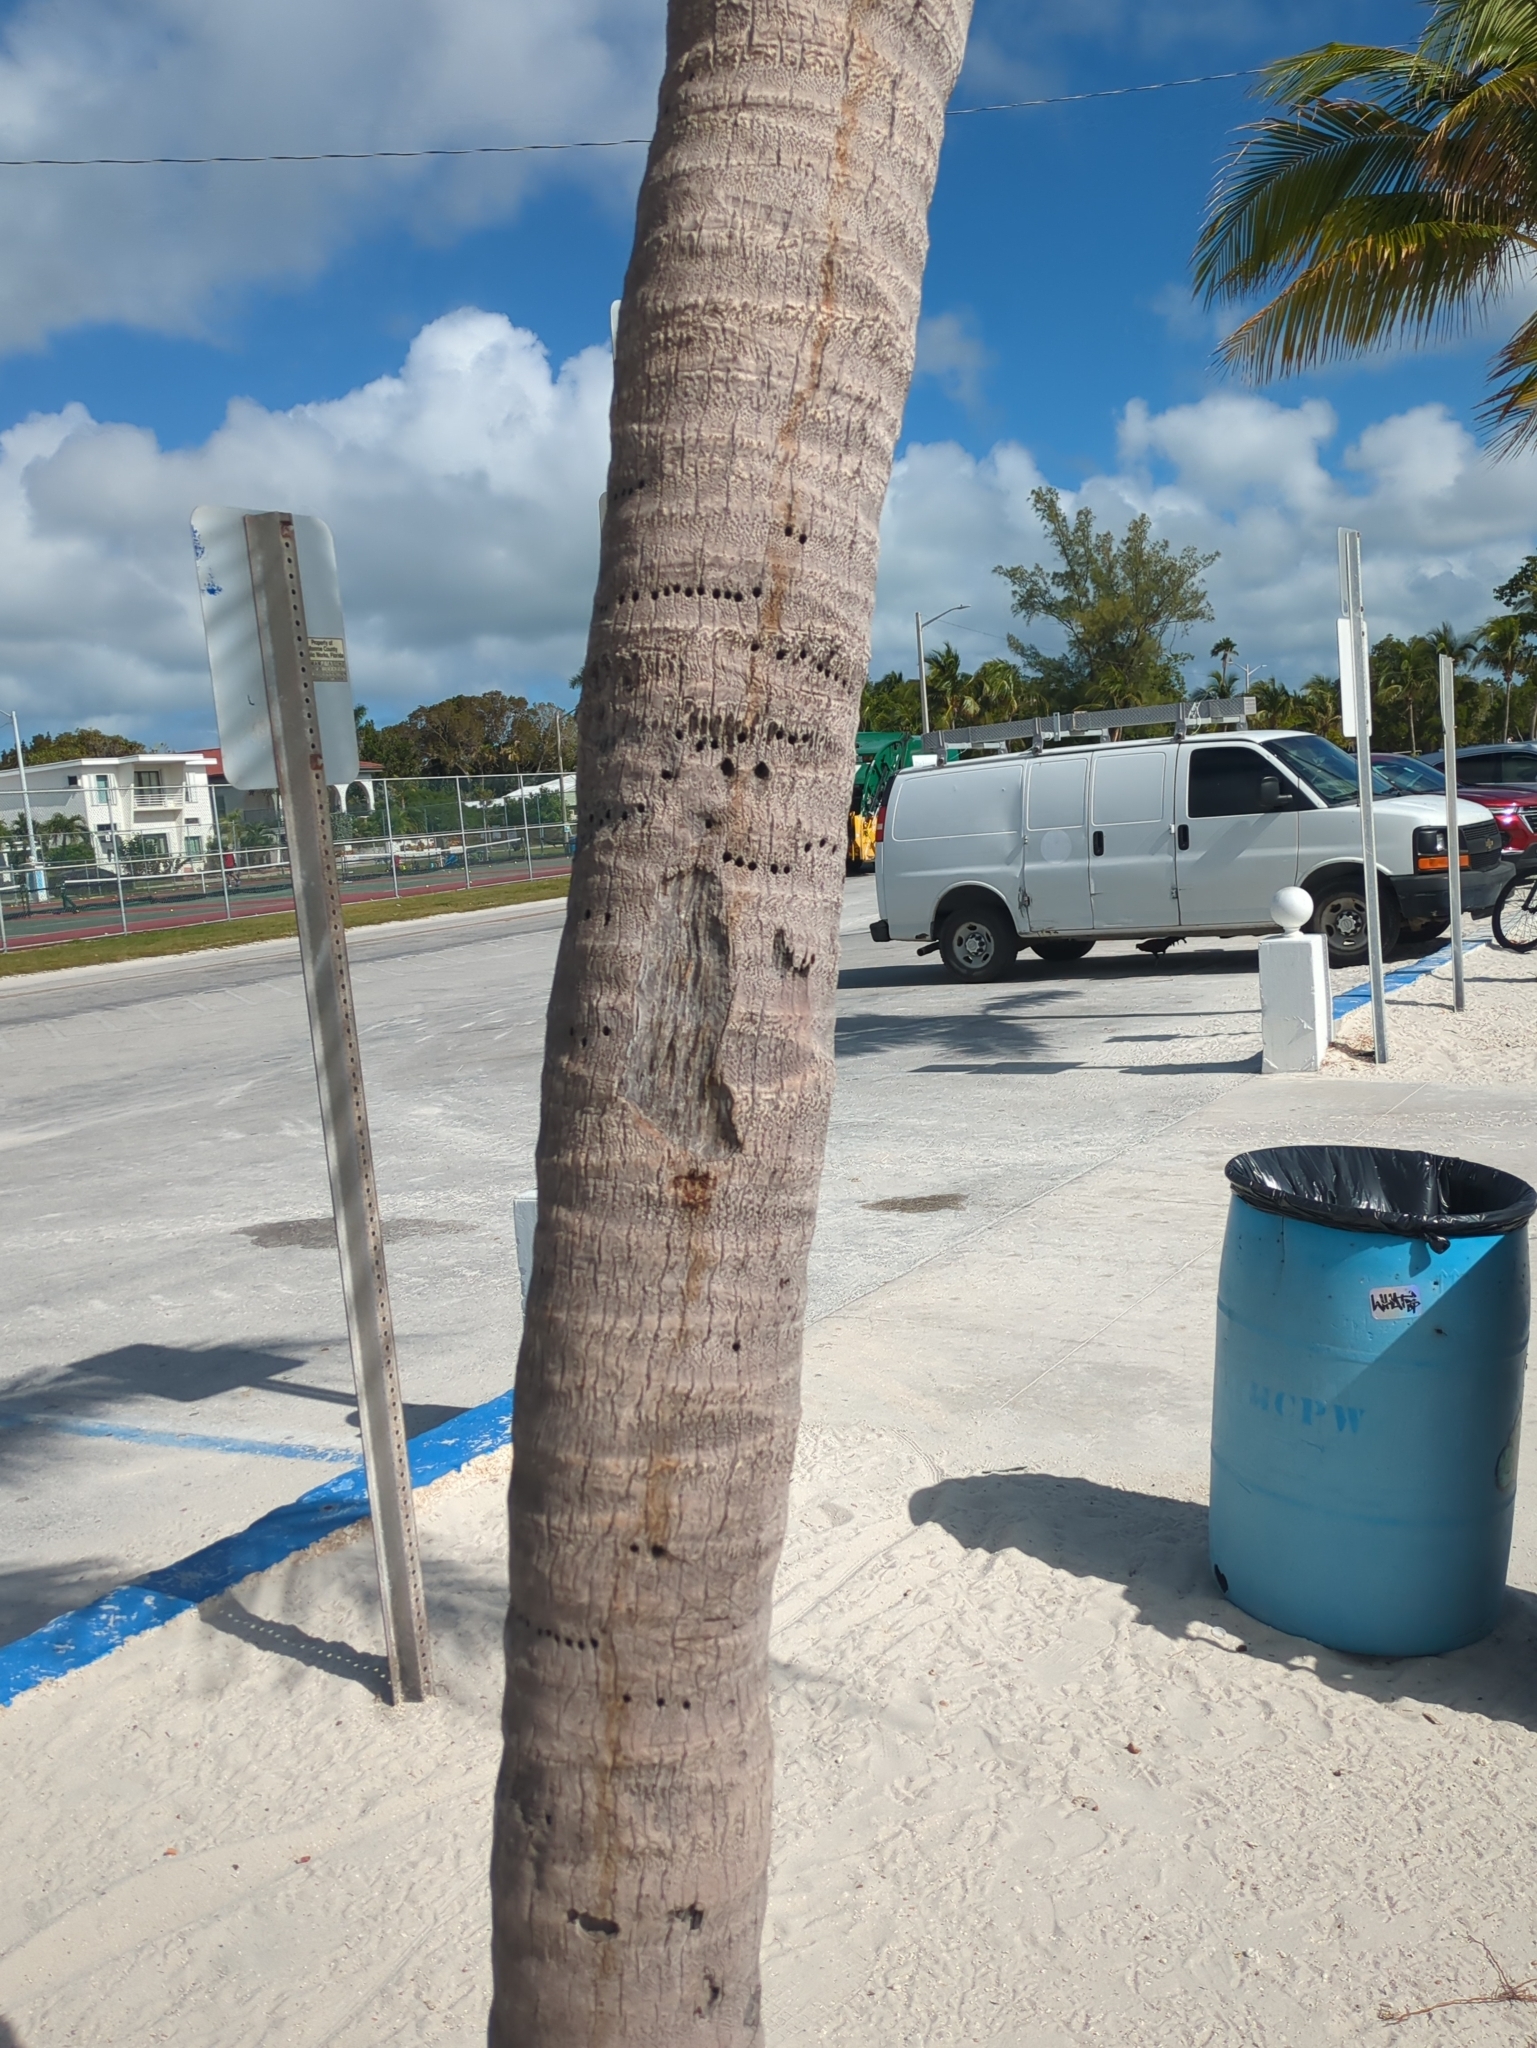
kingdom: Animalia
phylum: Chordata
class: Aves
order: Piciformes
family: Picidae
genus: Sphyrapicus
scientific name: Sphyrapicus varius
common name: Yellow-bellied sapsucker
